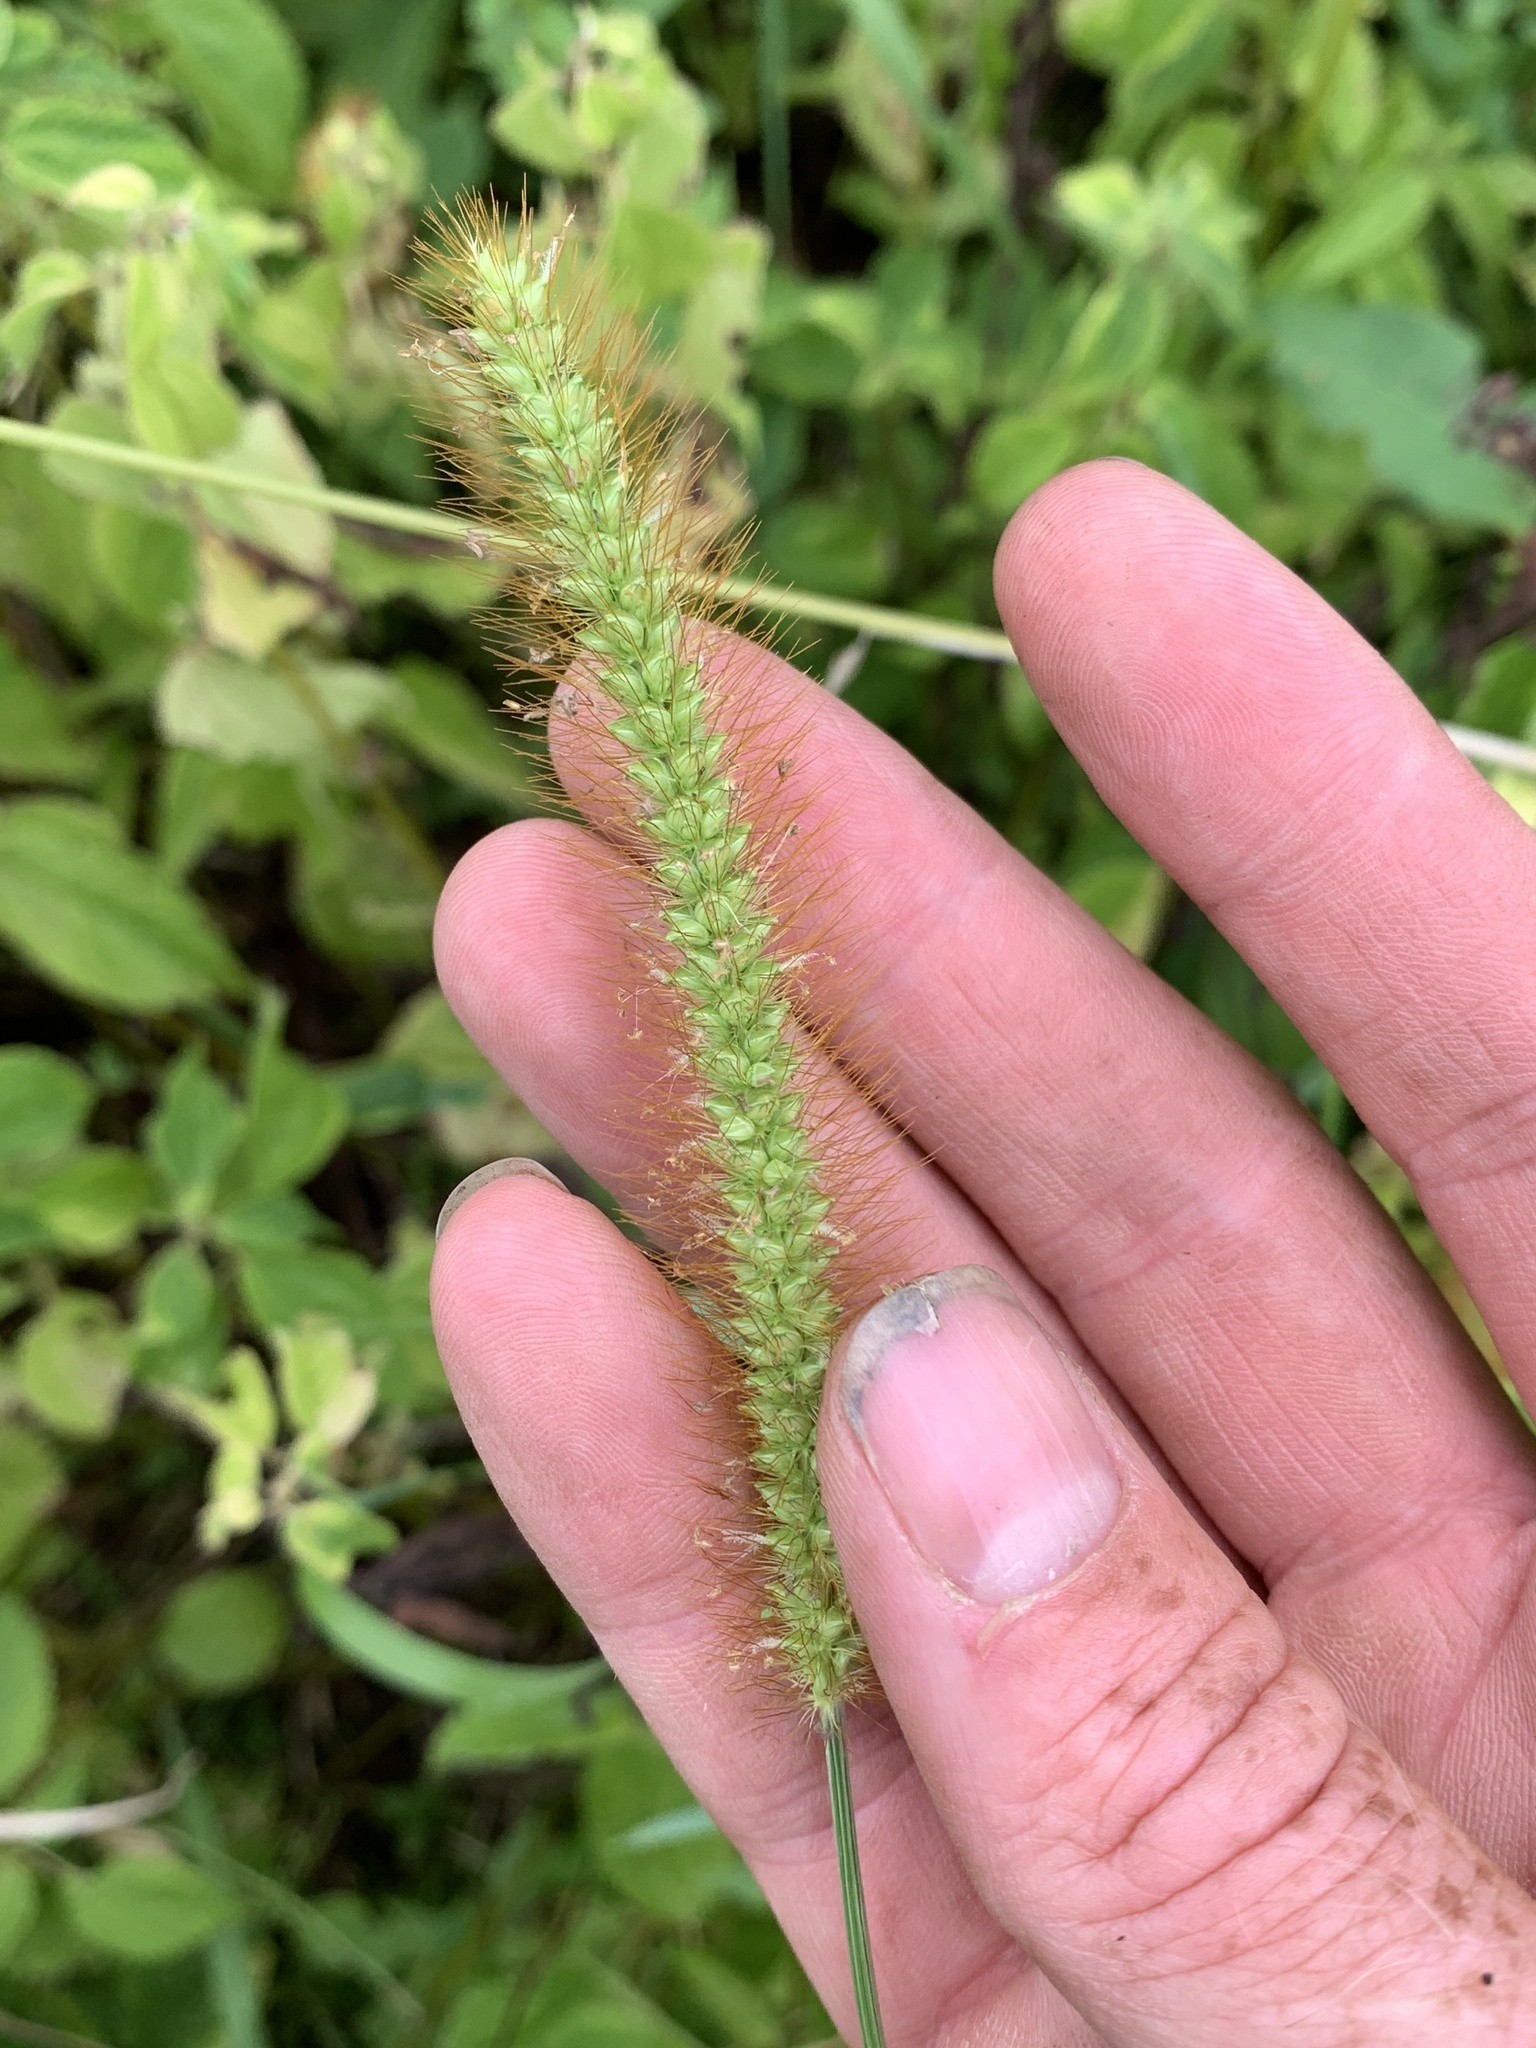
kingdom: Plantae
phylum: Tracheophyta
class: Liliopsida
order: Poales
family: Poaceae
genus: Setaria
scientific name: Setaria pumila
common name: Yellow bristle-grass
